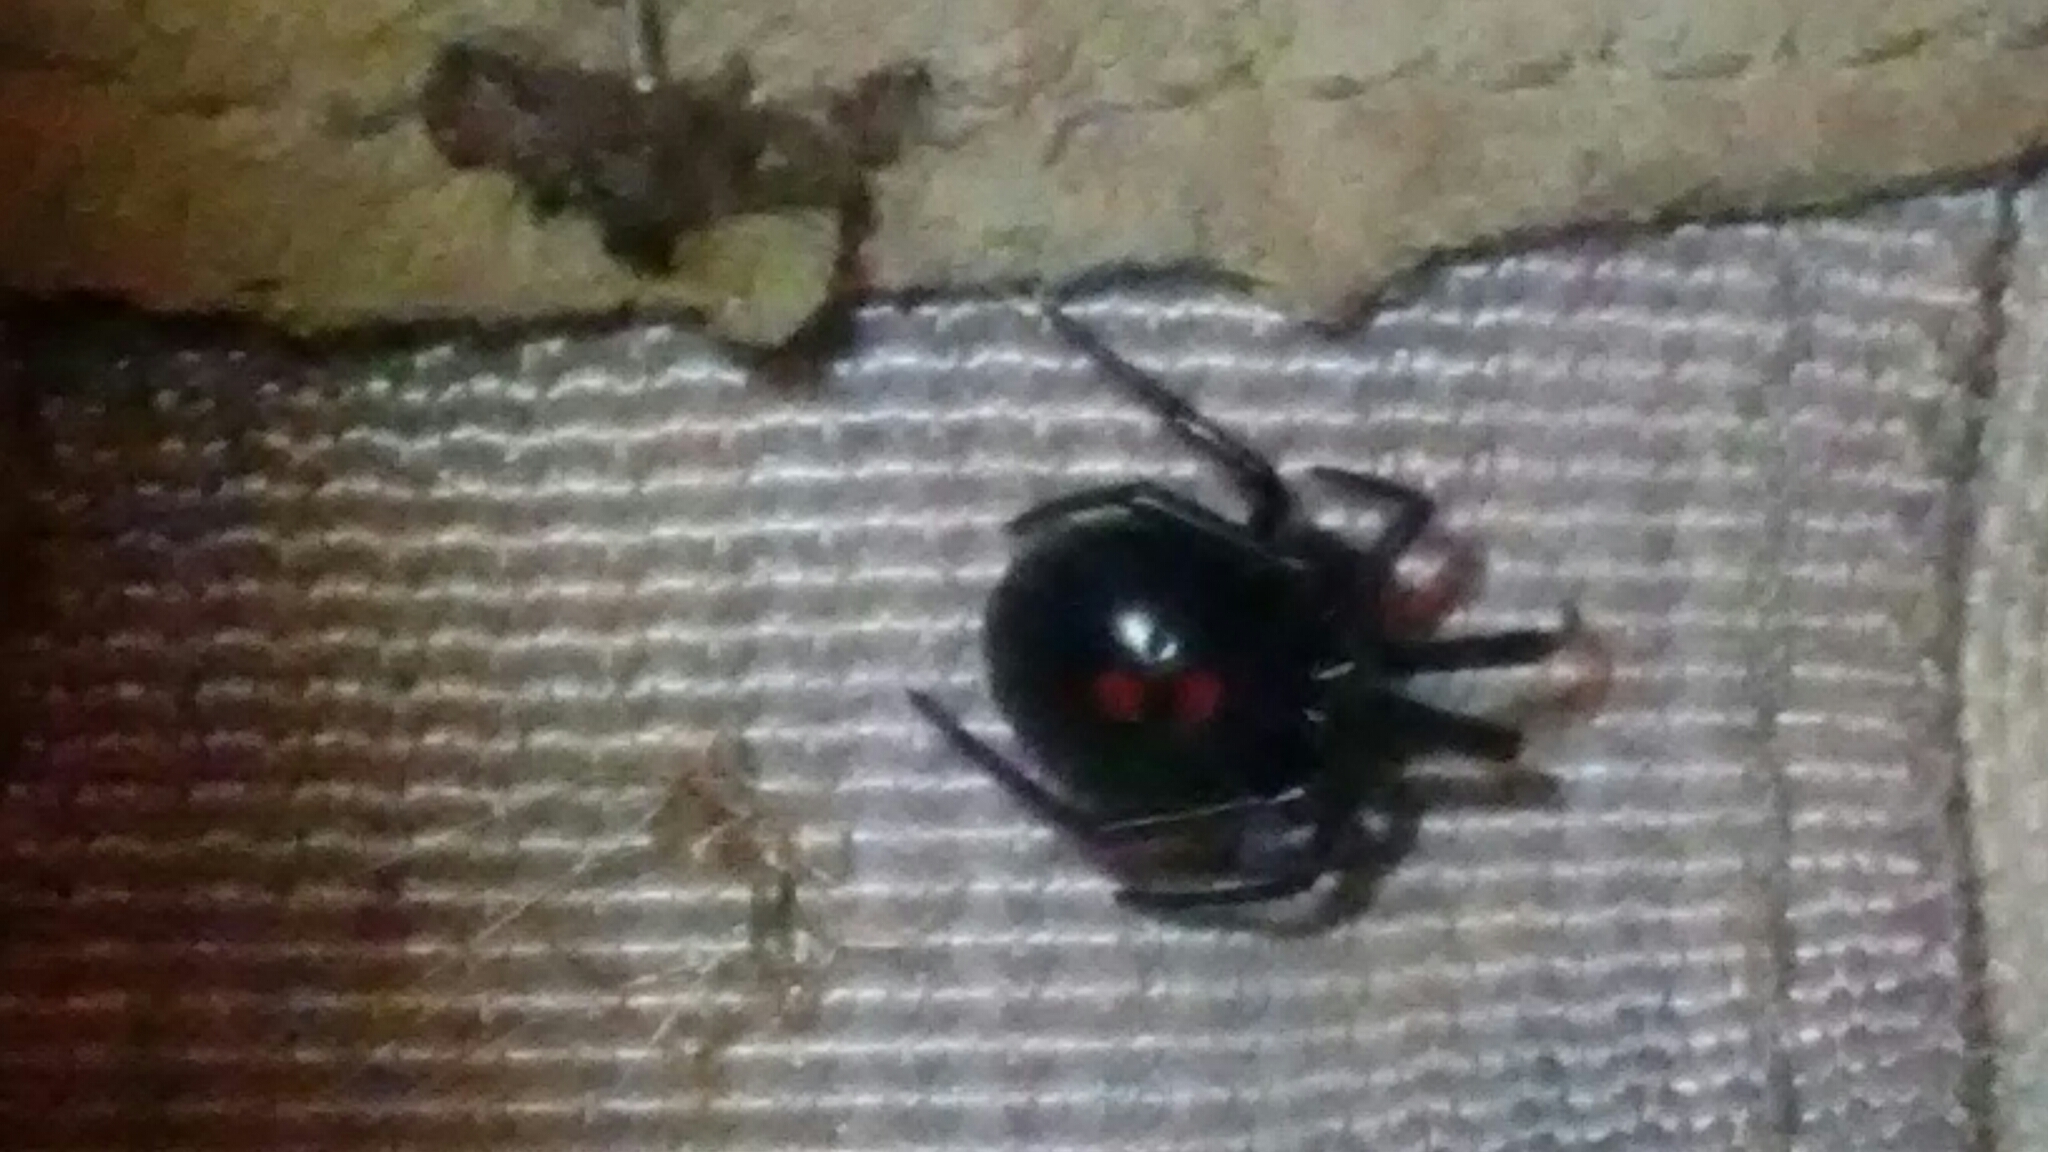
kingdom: Animalia
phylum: Arthropoda
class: Arachnida
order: Araneae
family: Theridiidae
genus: Latrodectus
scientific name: Latrodectus variolus
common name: Northern black widow
